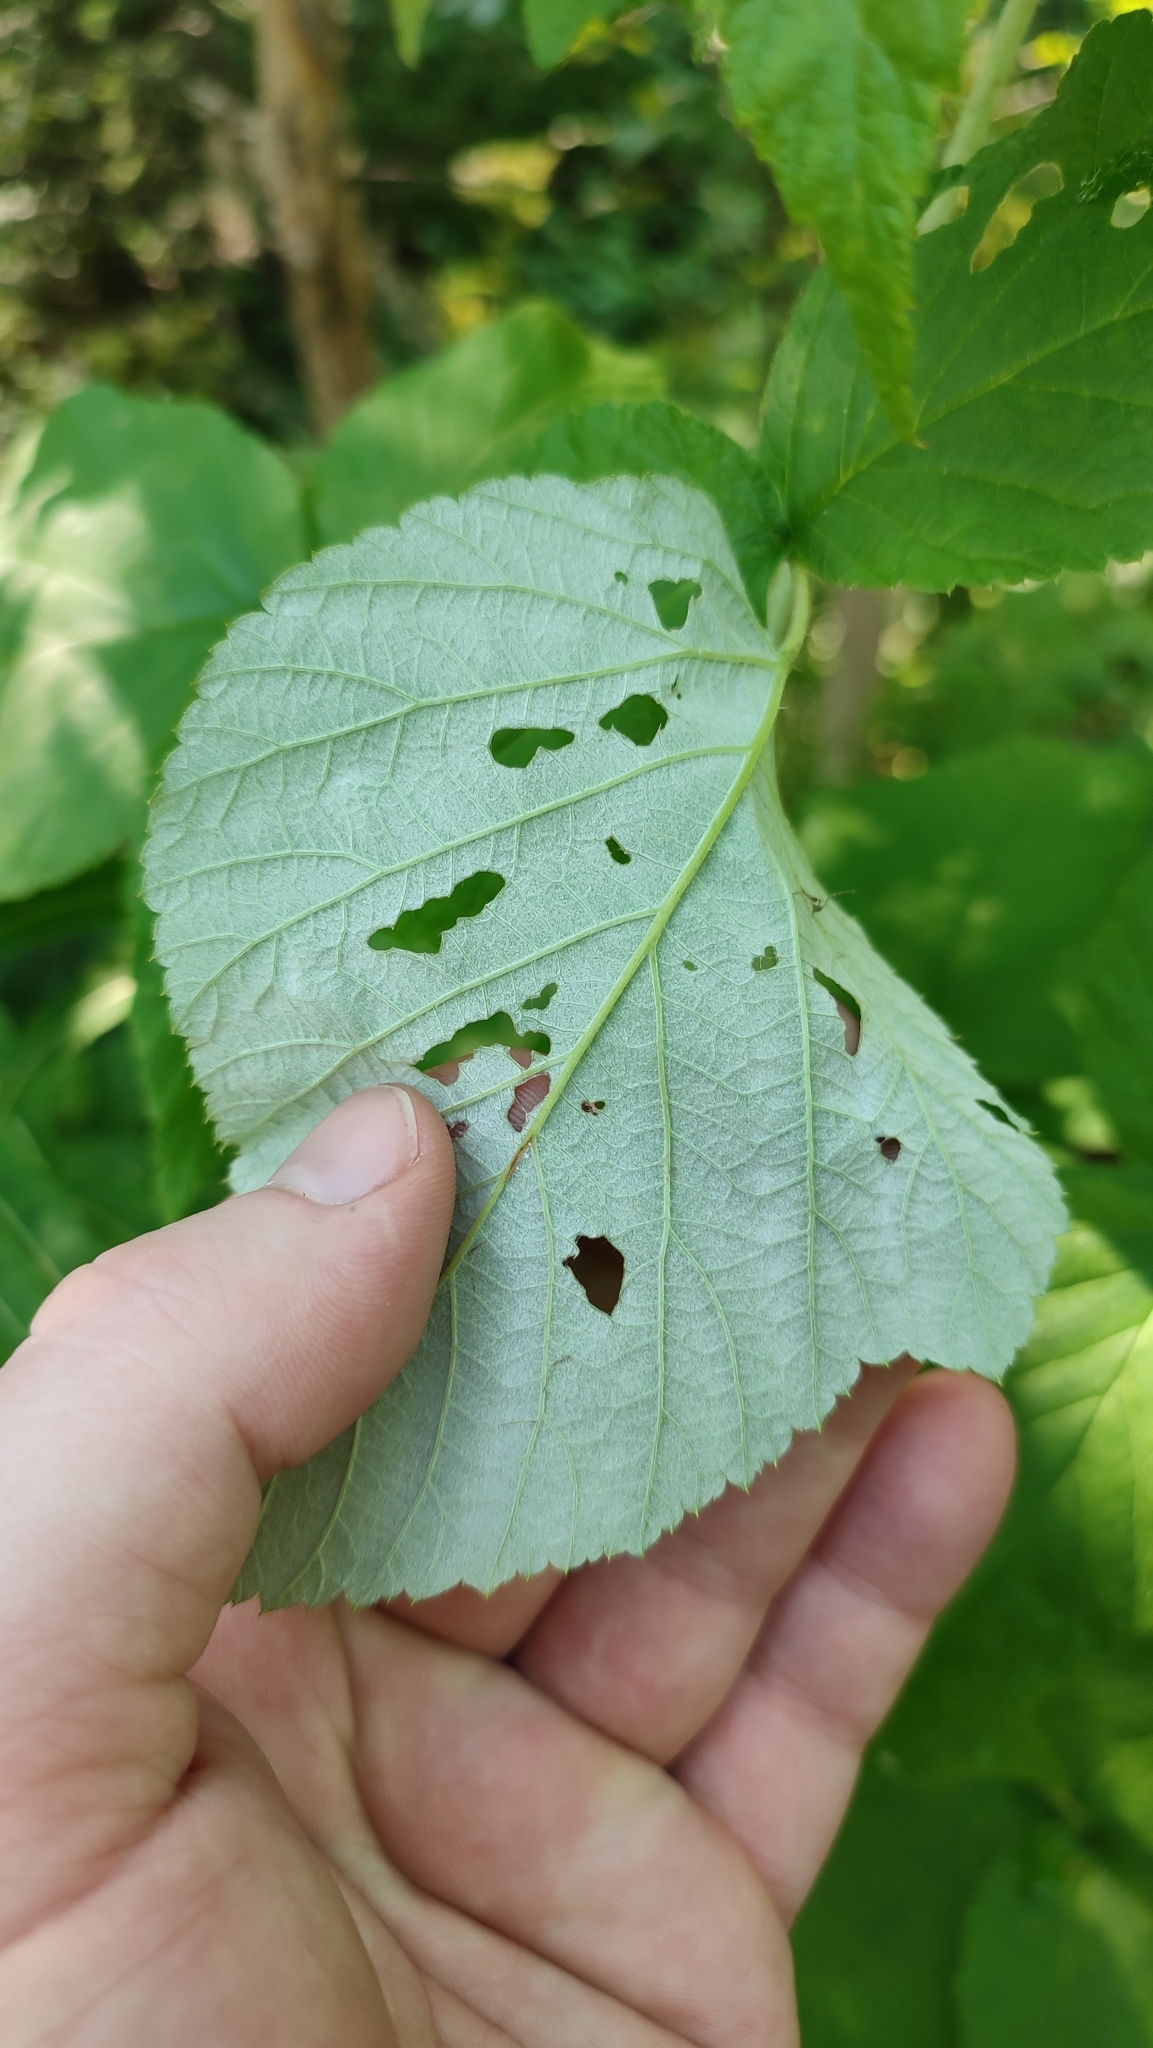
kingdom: Plantae
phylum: Tracheophyta
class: Magnoliopsida
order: Rosales
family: Rosaceae
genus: Rubus
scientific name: Rubus idaeus
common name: Raspberry
